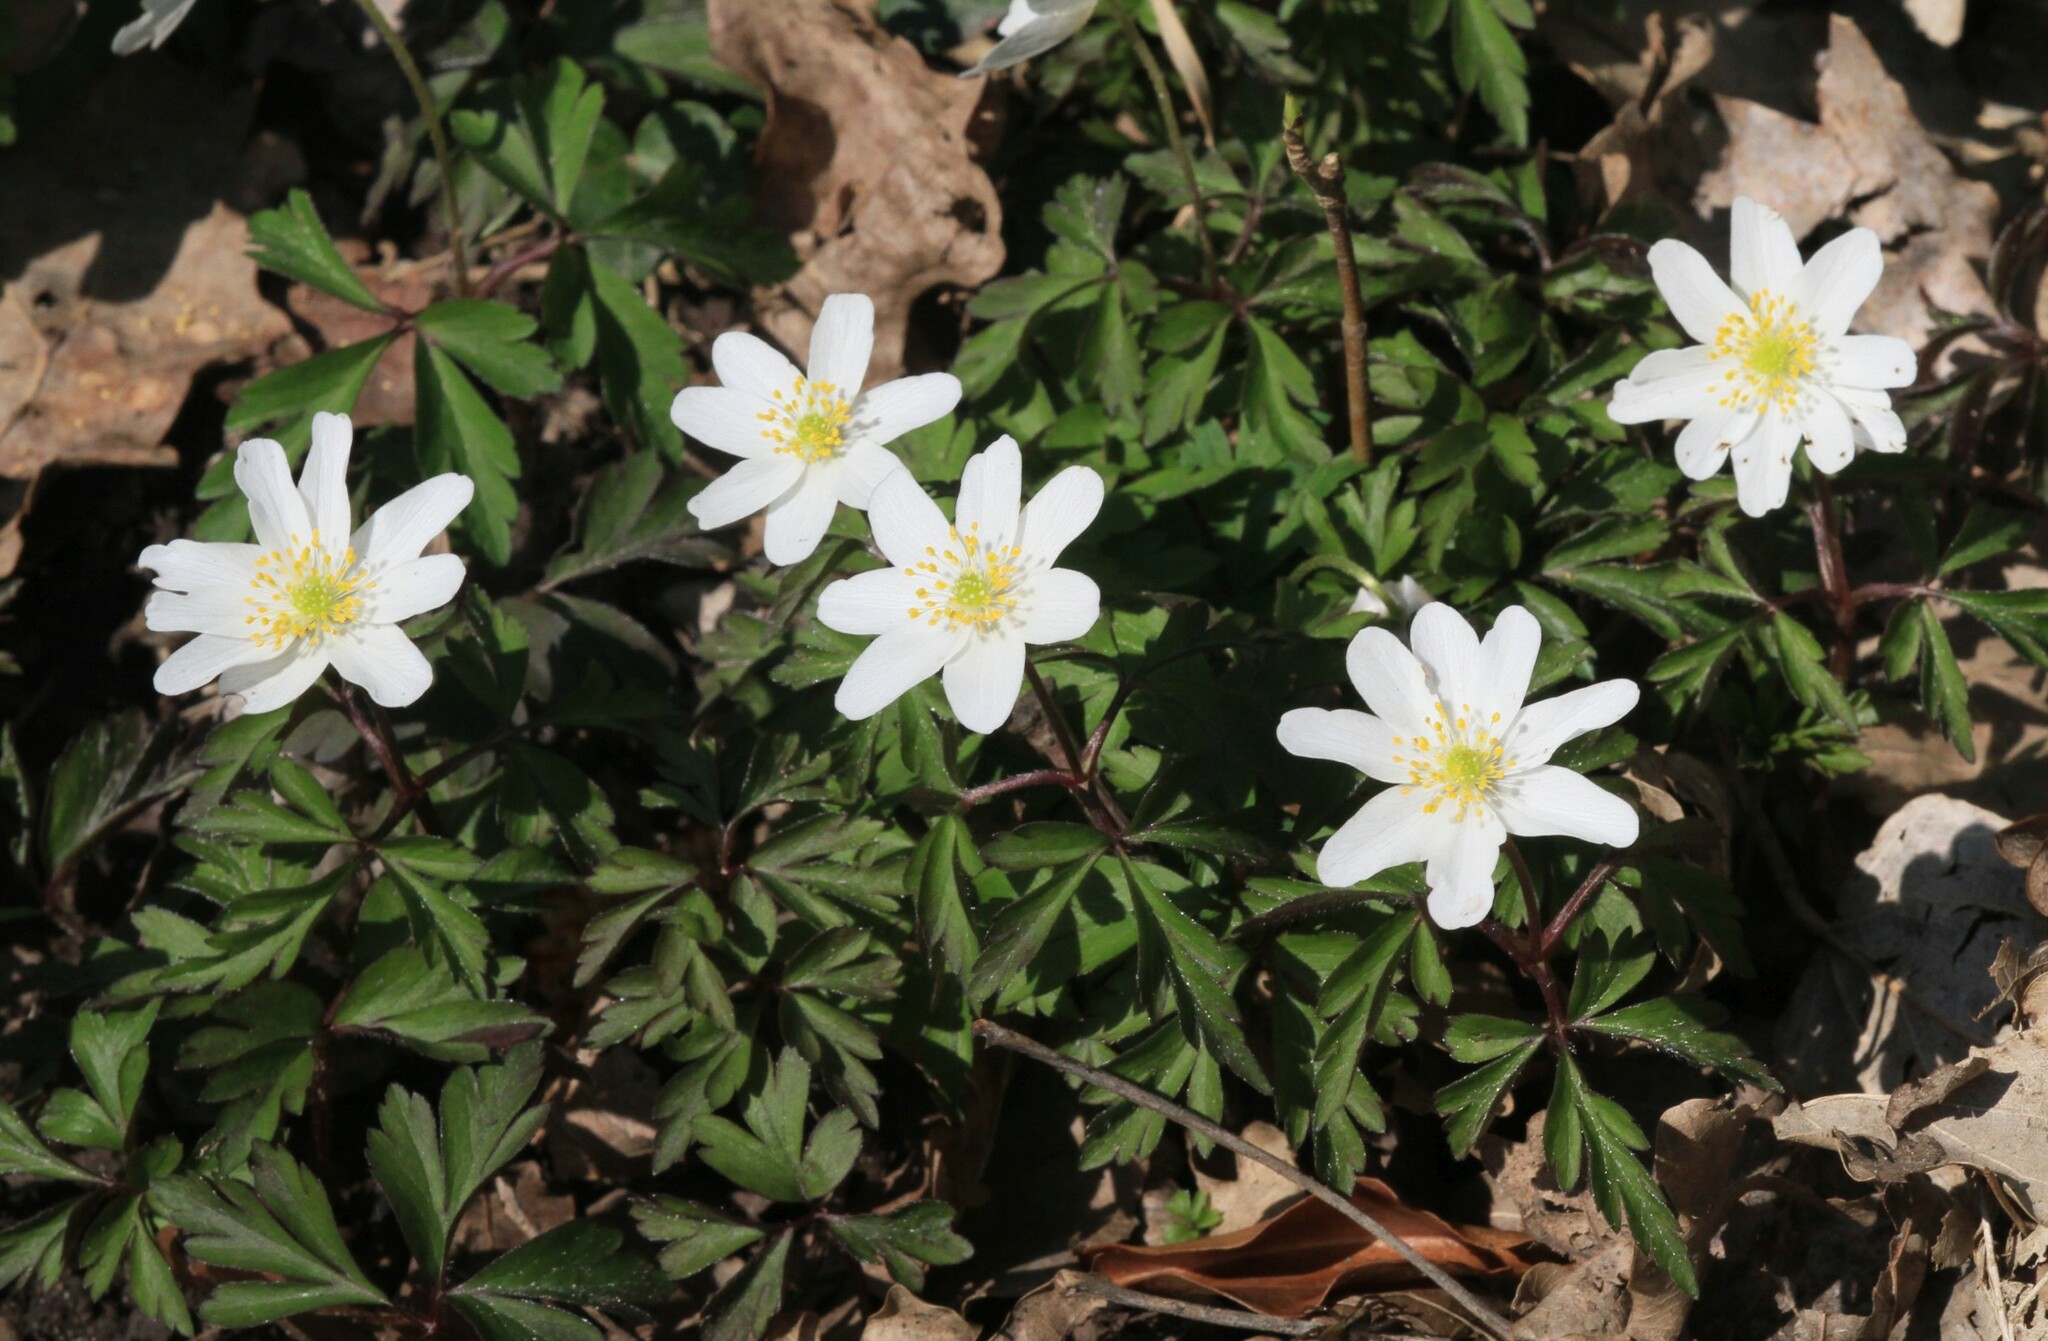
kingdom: Plantae
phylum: Tracheophyta
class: Magnoliopsida
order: Ranunculales
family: Ranunculaceae
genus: Anemone
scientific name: Anemone nemorosa
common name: Wood anemone
